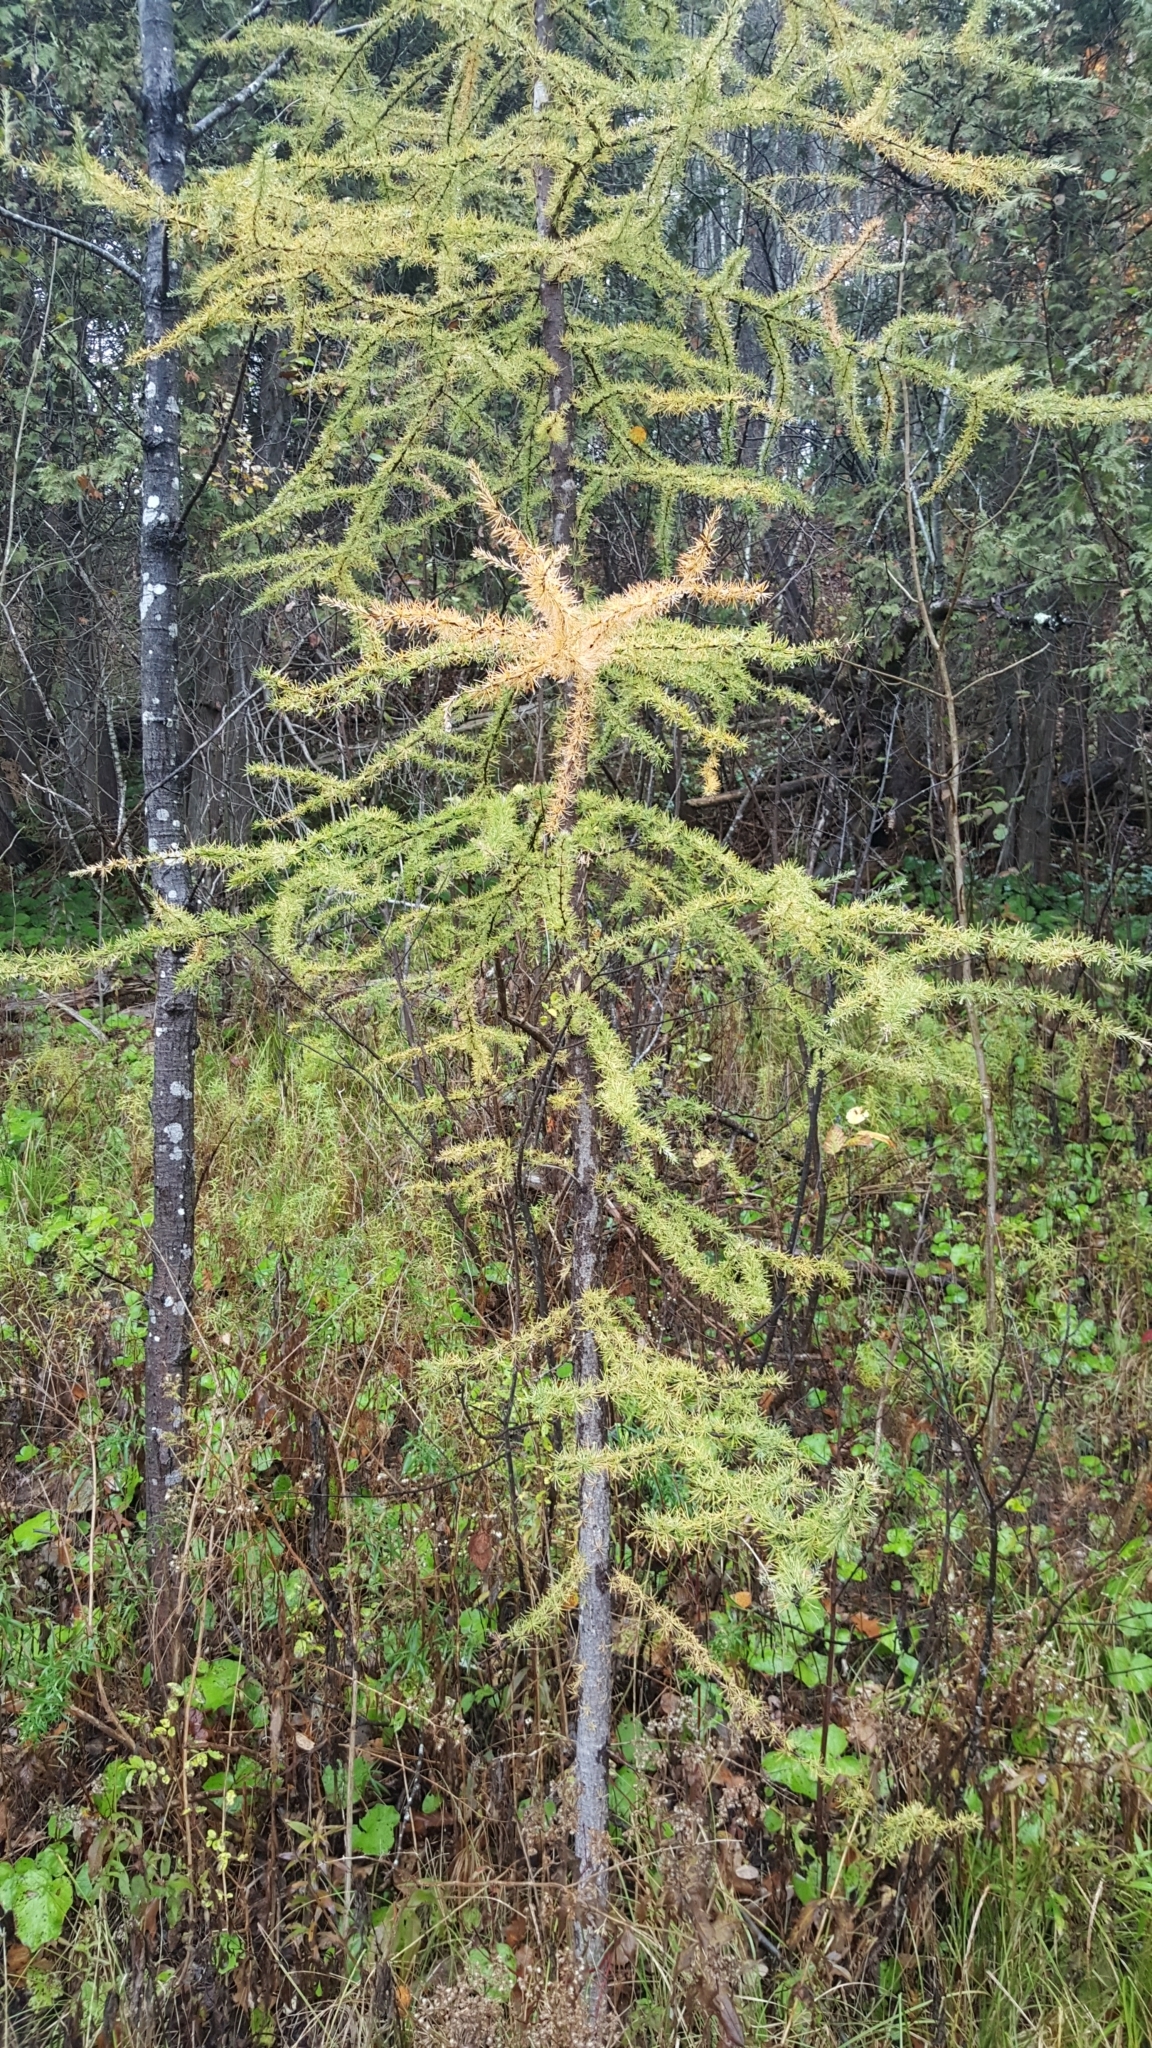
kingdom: Plantae
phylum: Tracheophyta
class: Pinopsida
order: Pinales
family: Pinaceae
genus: Larix
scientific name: Larix laricina
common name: American larch
